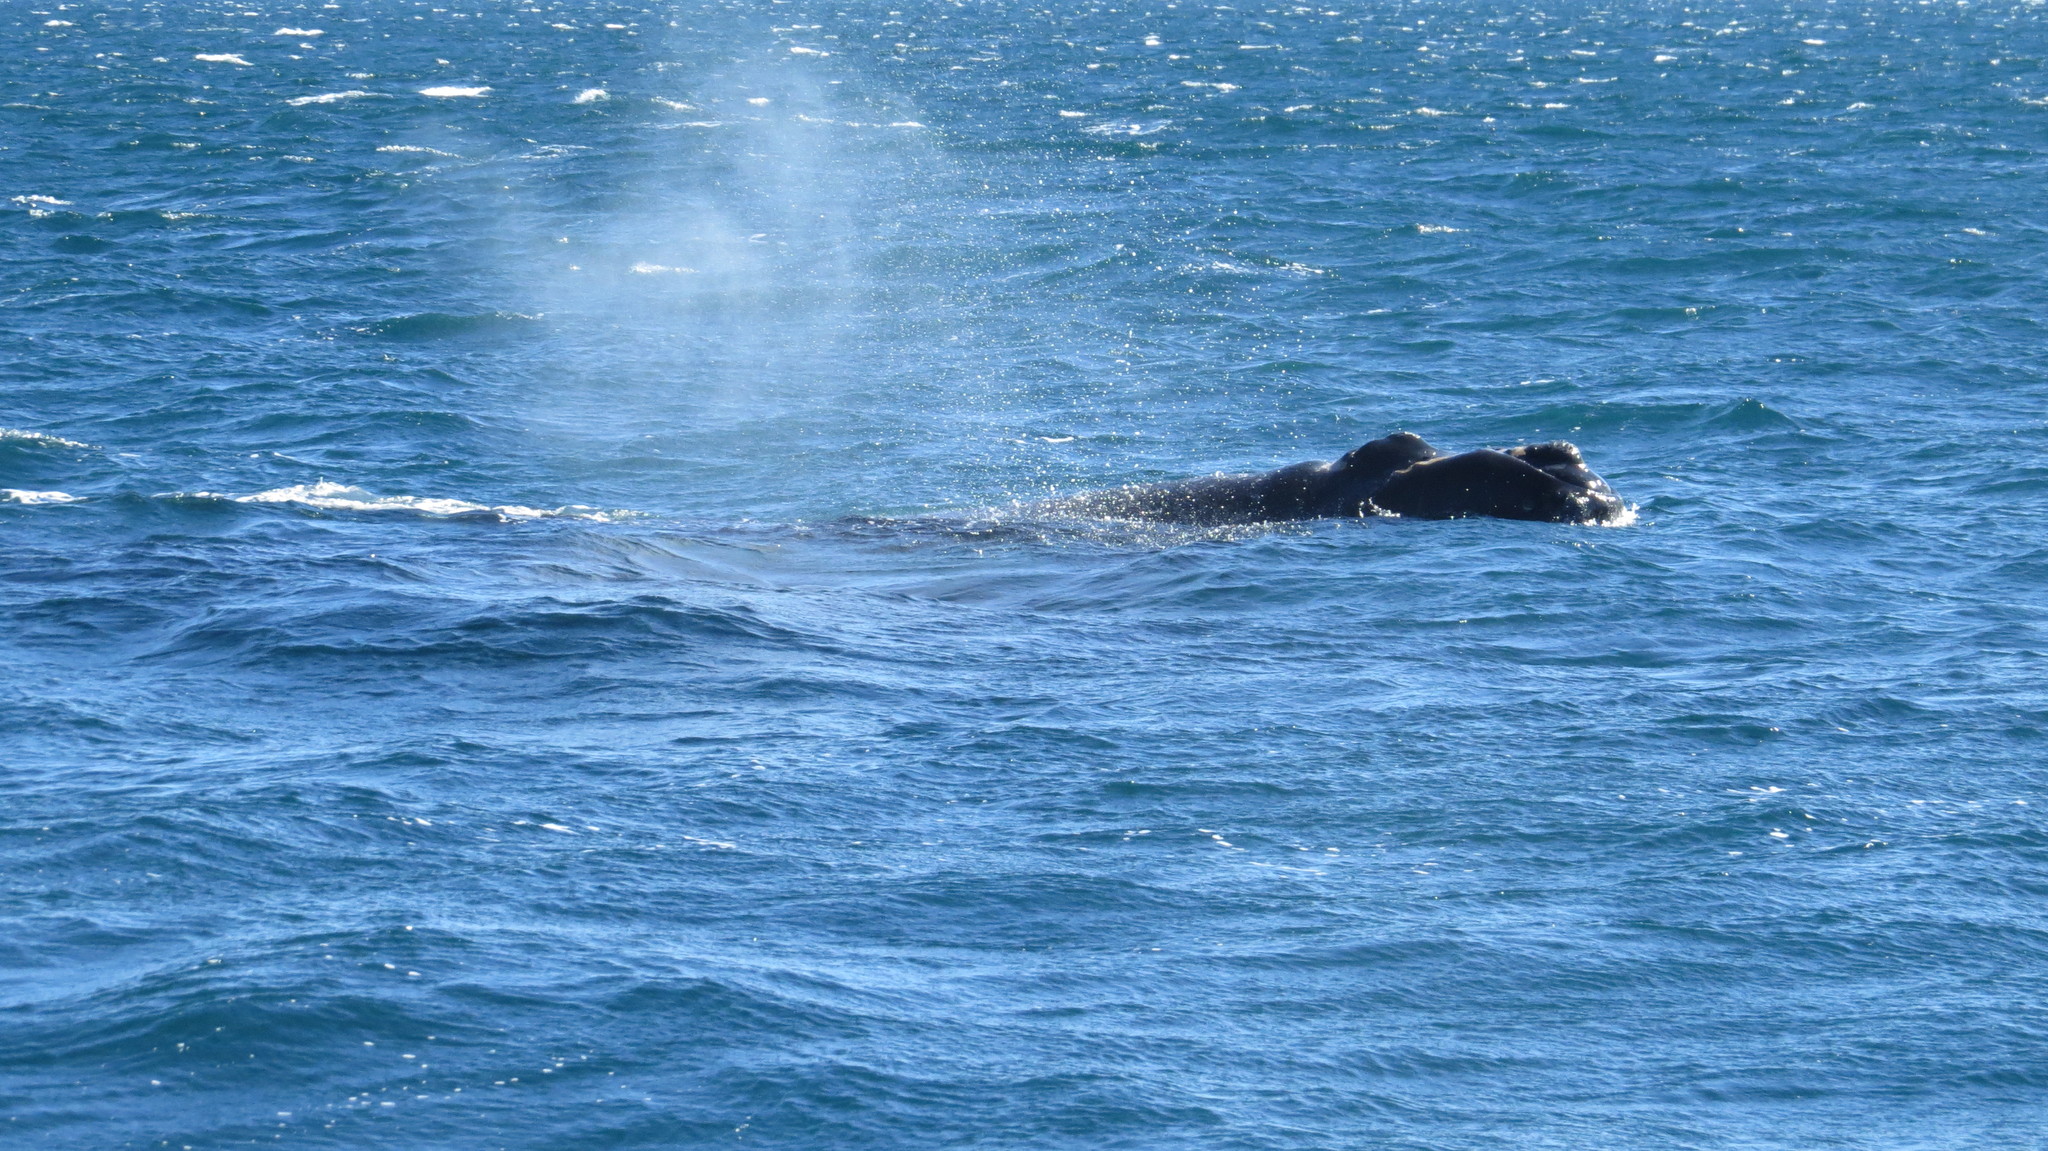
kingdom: Animalia
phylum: Chordata
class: Mammalia
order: Cetacea
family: Balaenidae
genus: Eubalaena
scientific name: Eubalaena australis
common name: Southern right whale
